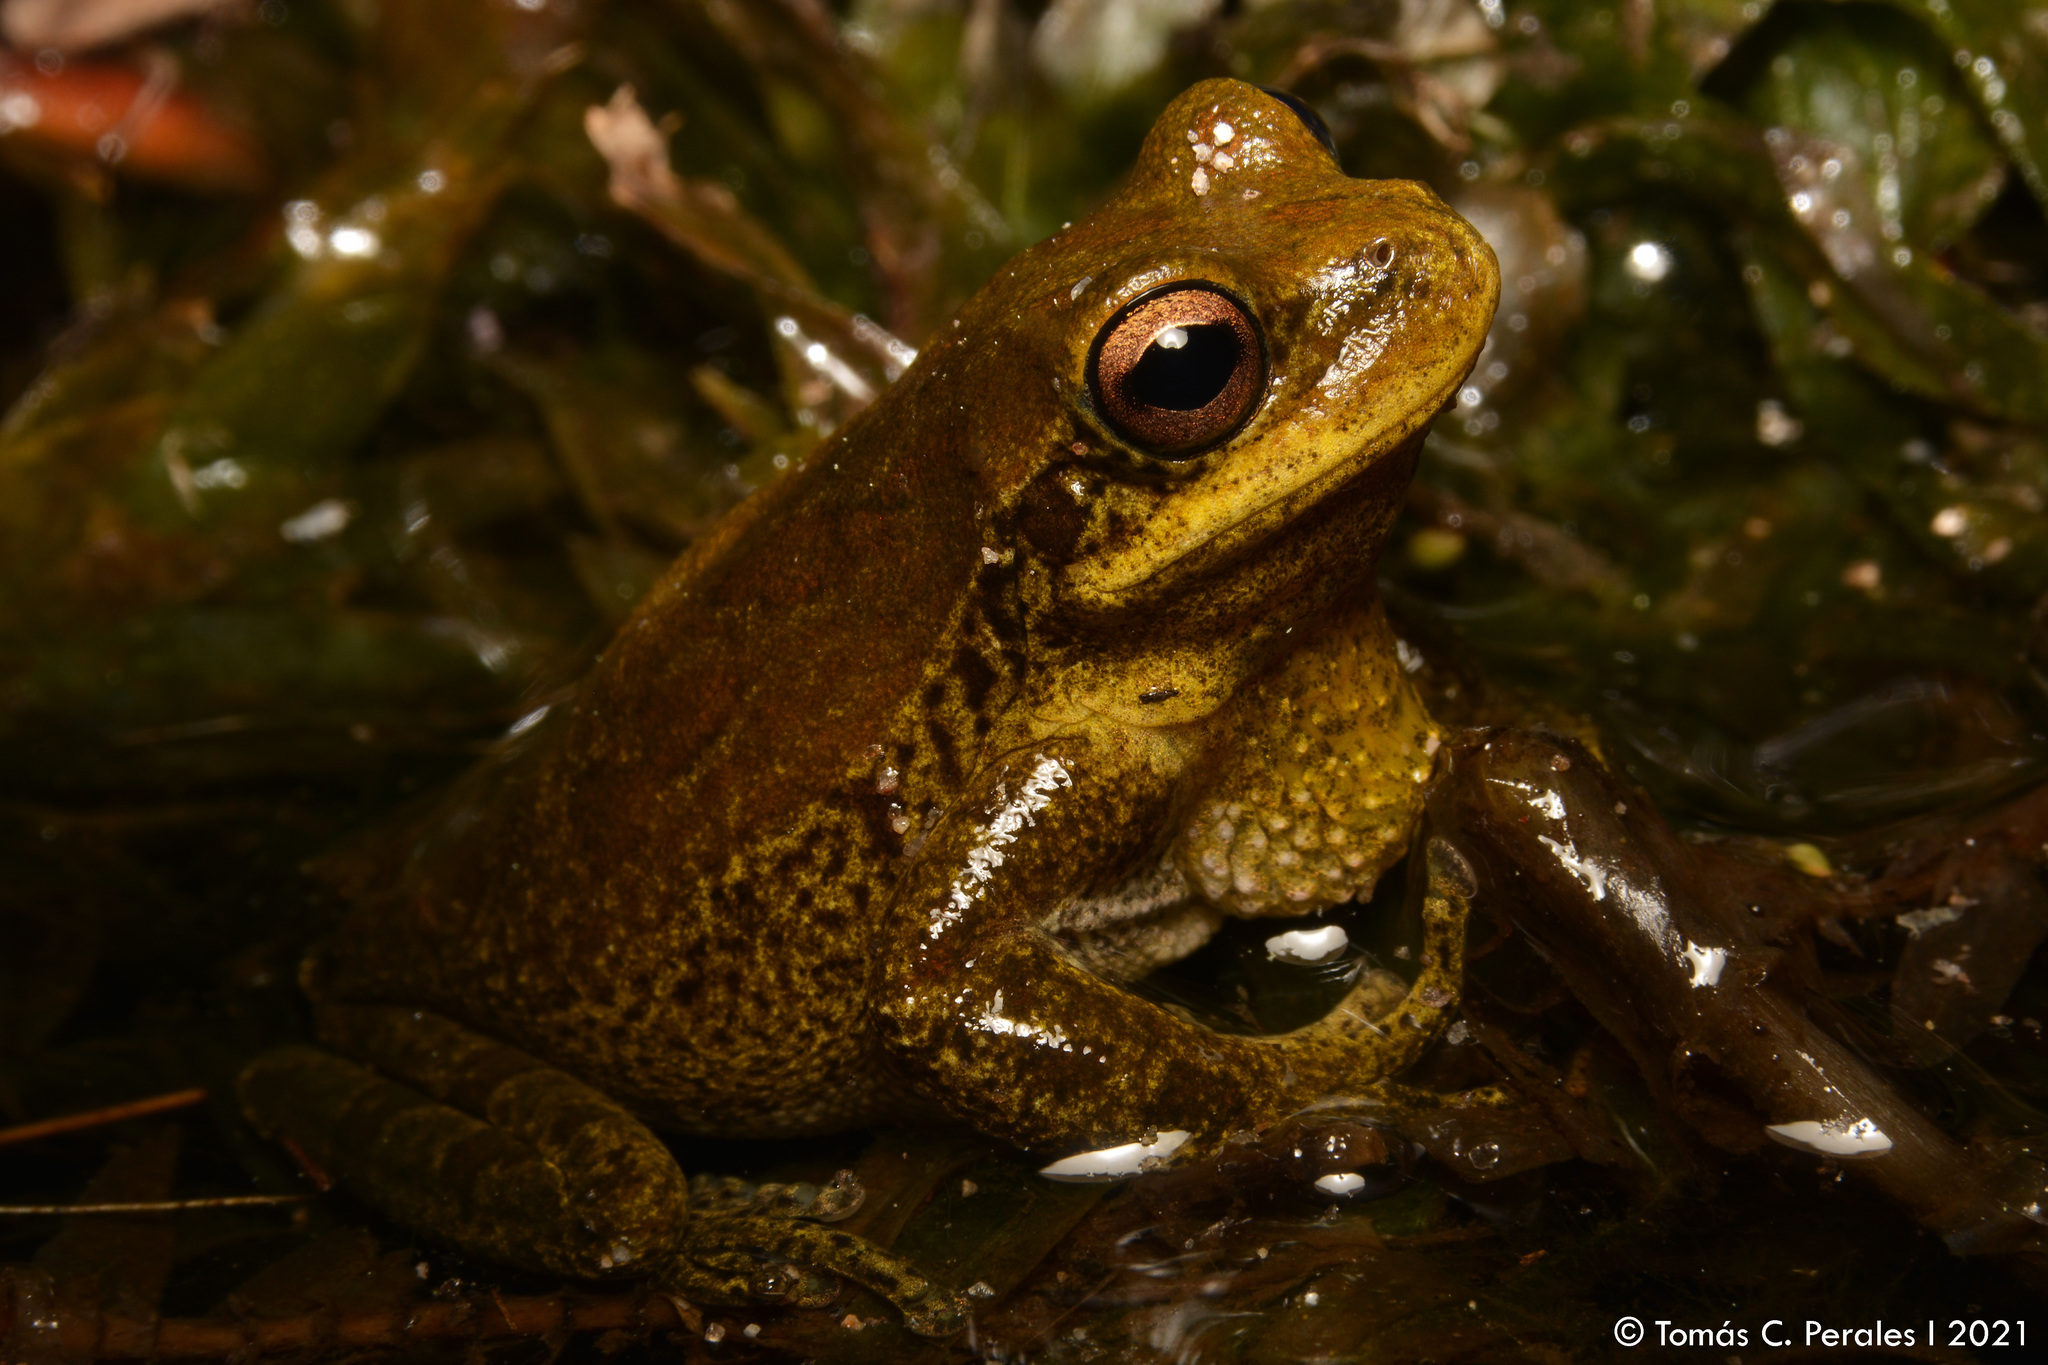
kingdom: Animalia
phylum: Chordata
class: Amphibia
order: Anura
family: Hylidae
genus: Boana
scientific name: Boana cordobae
